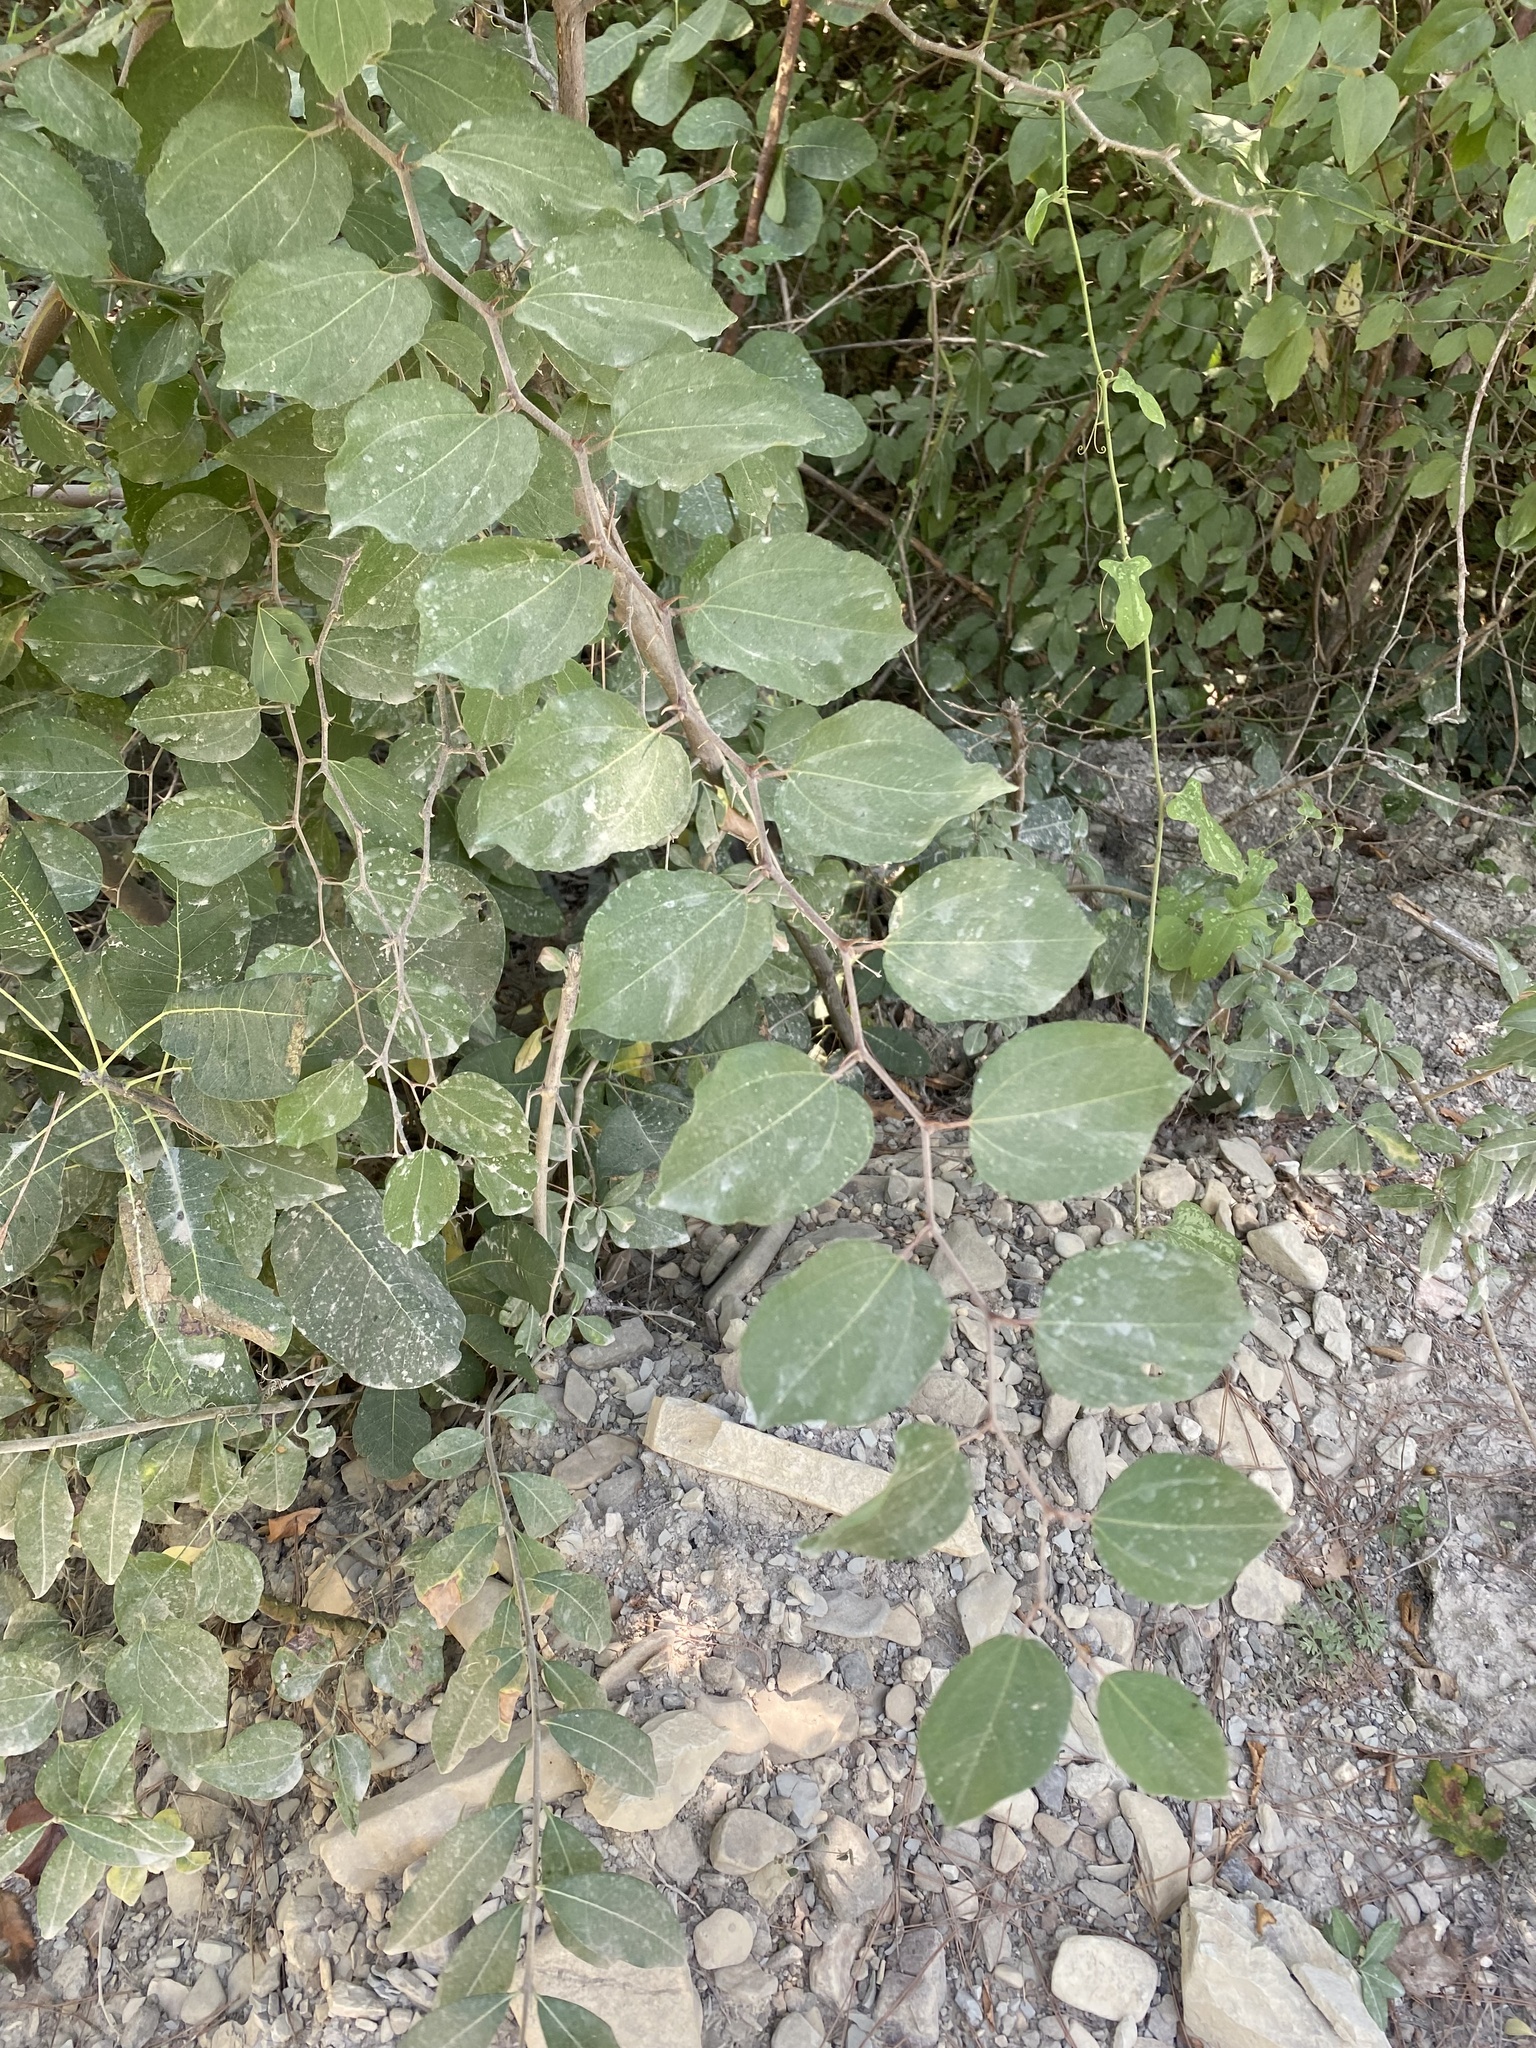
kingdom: Plantae
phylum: Tracheophyta
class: Magnoliopsida
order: Rosales
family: Rhamnaceae
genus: Paliurus
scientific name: Paliurus spina-christi
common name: Jeruselem thorn
